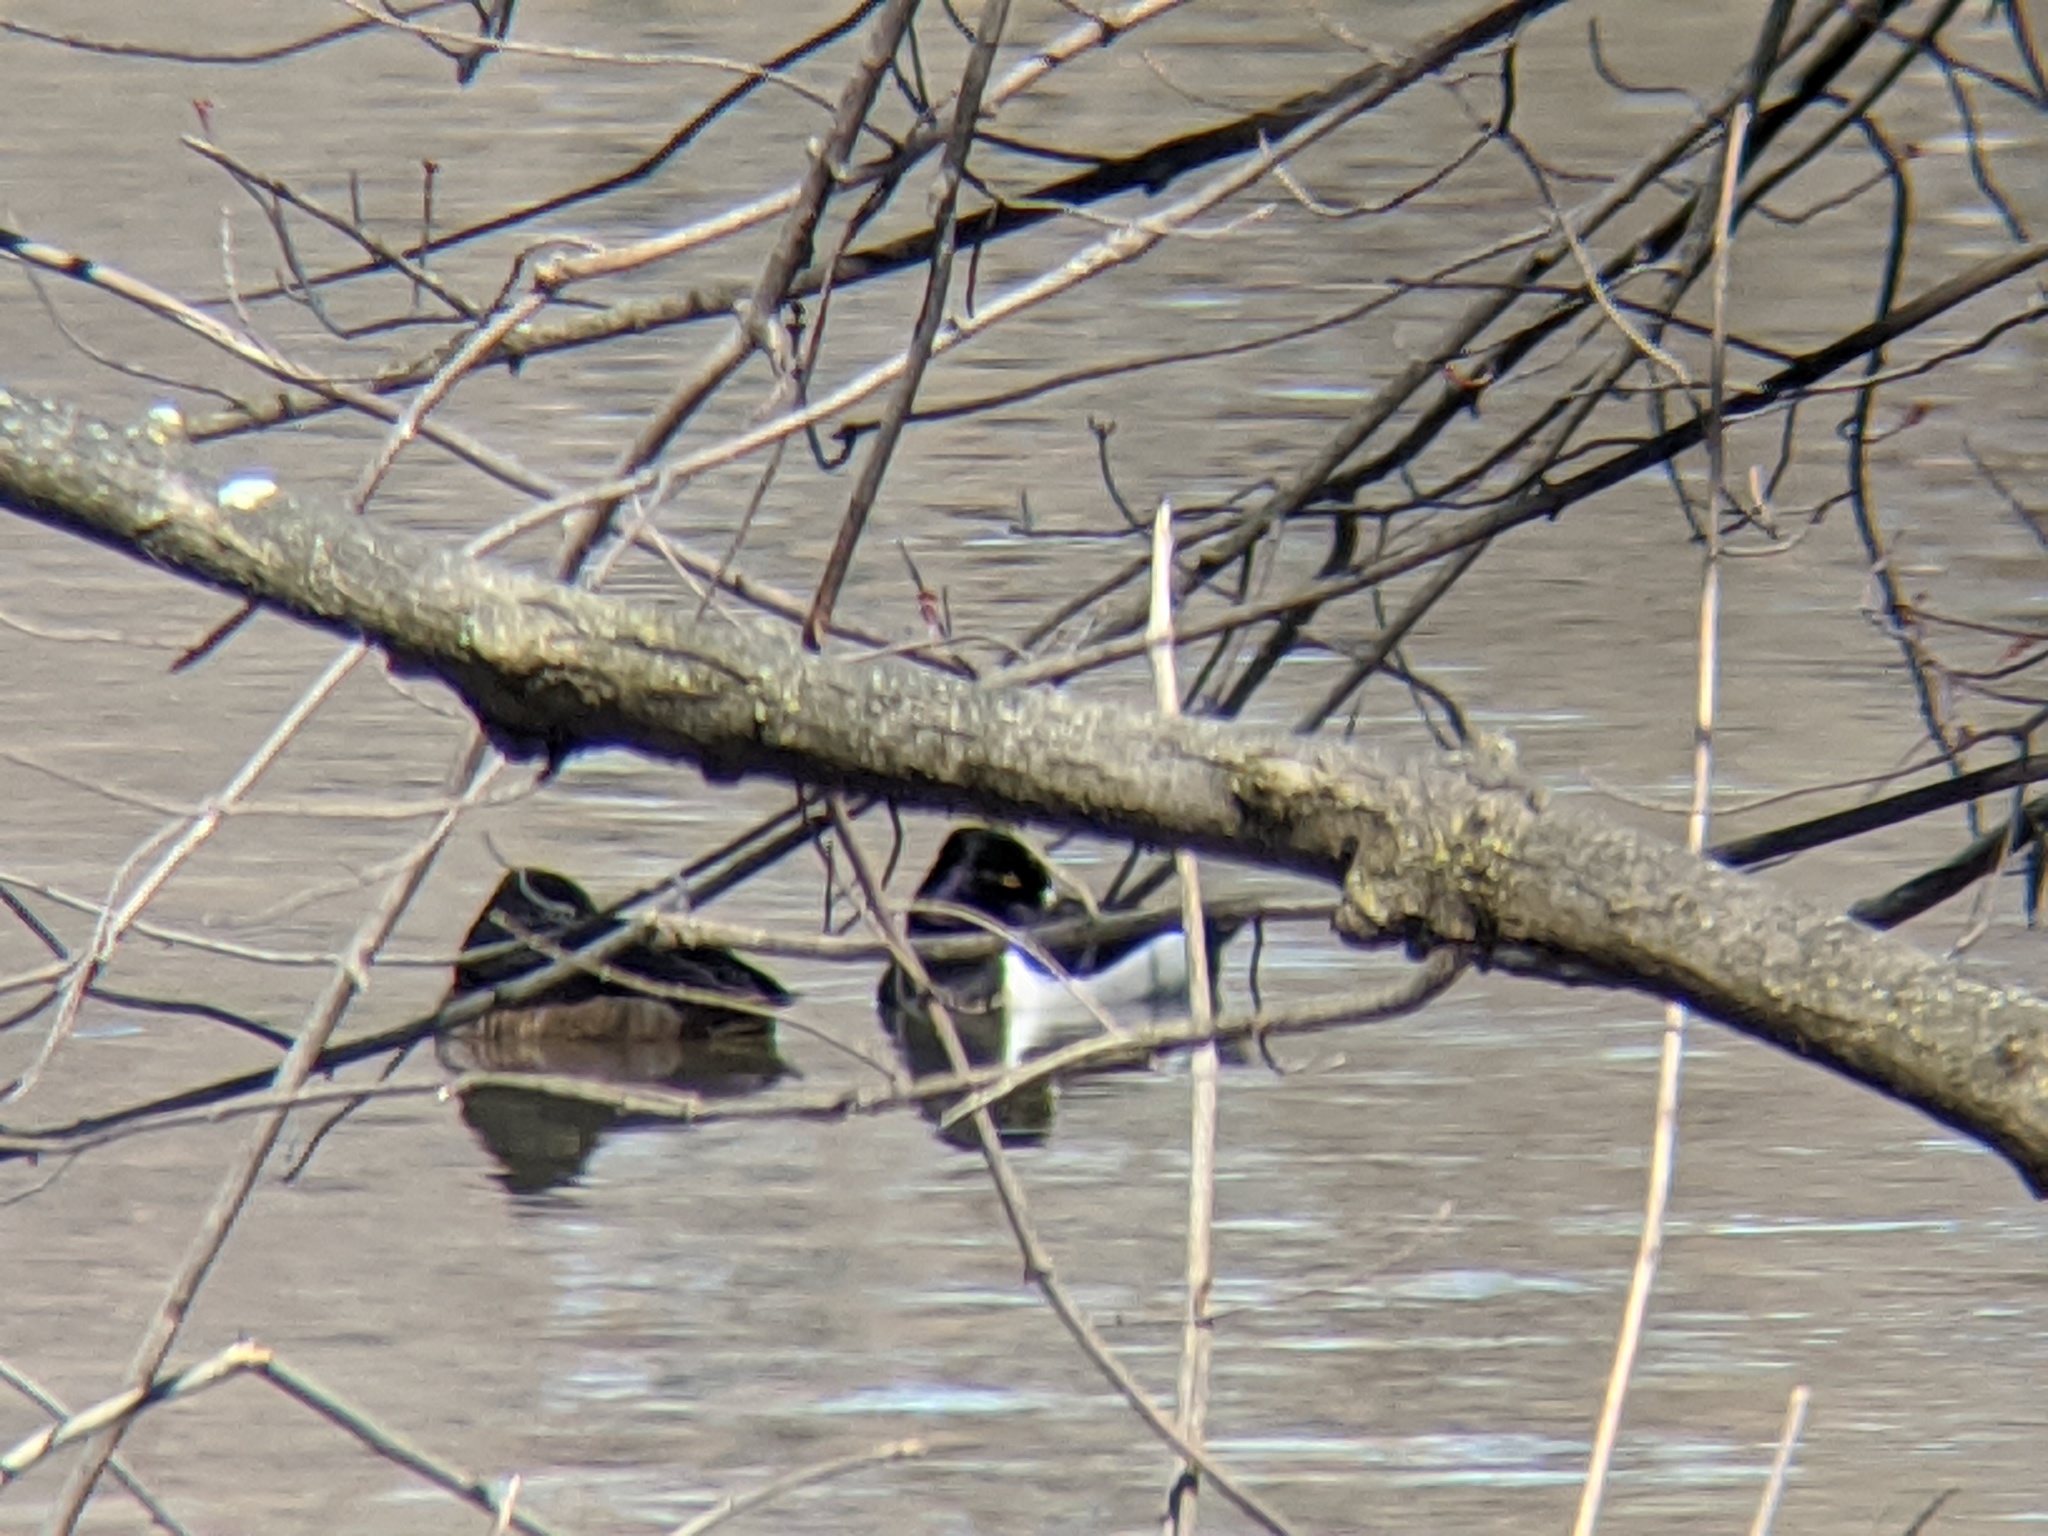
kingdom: Animalia
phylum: Chordata
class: Aves
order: Anseriformes
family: Anatidae
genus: Aythya
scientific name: Aythya collaris
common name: Ring-necked duck
